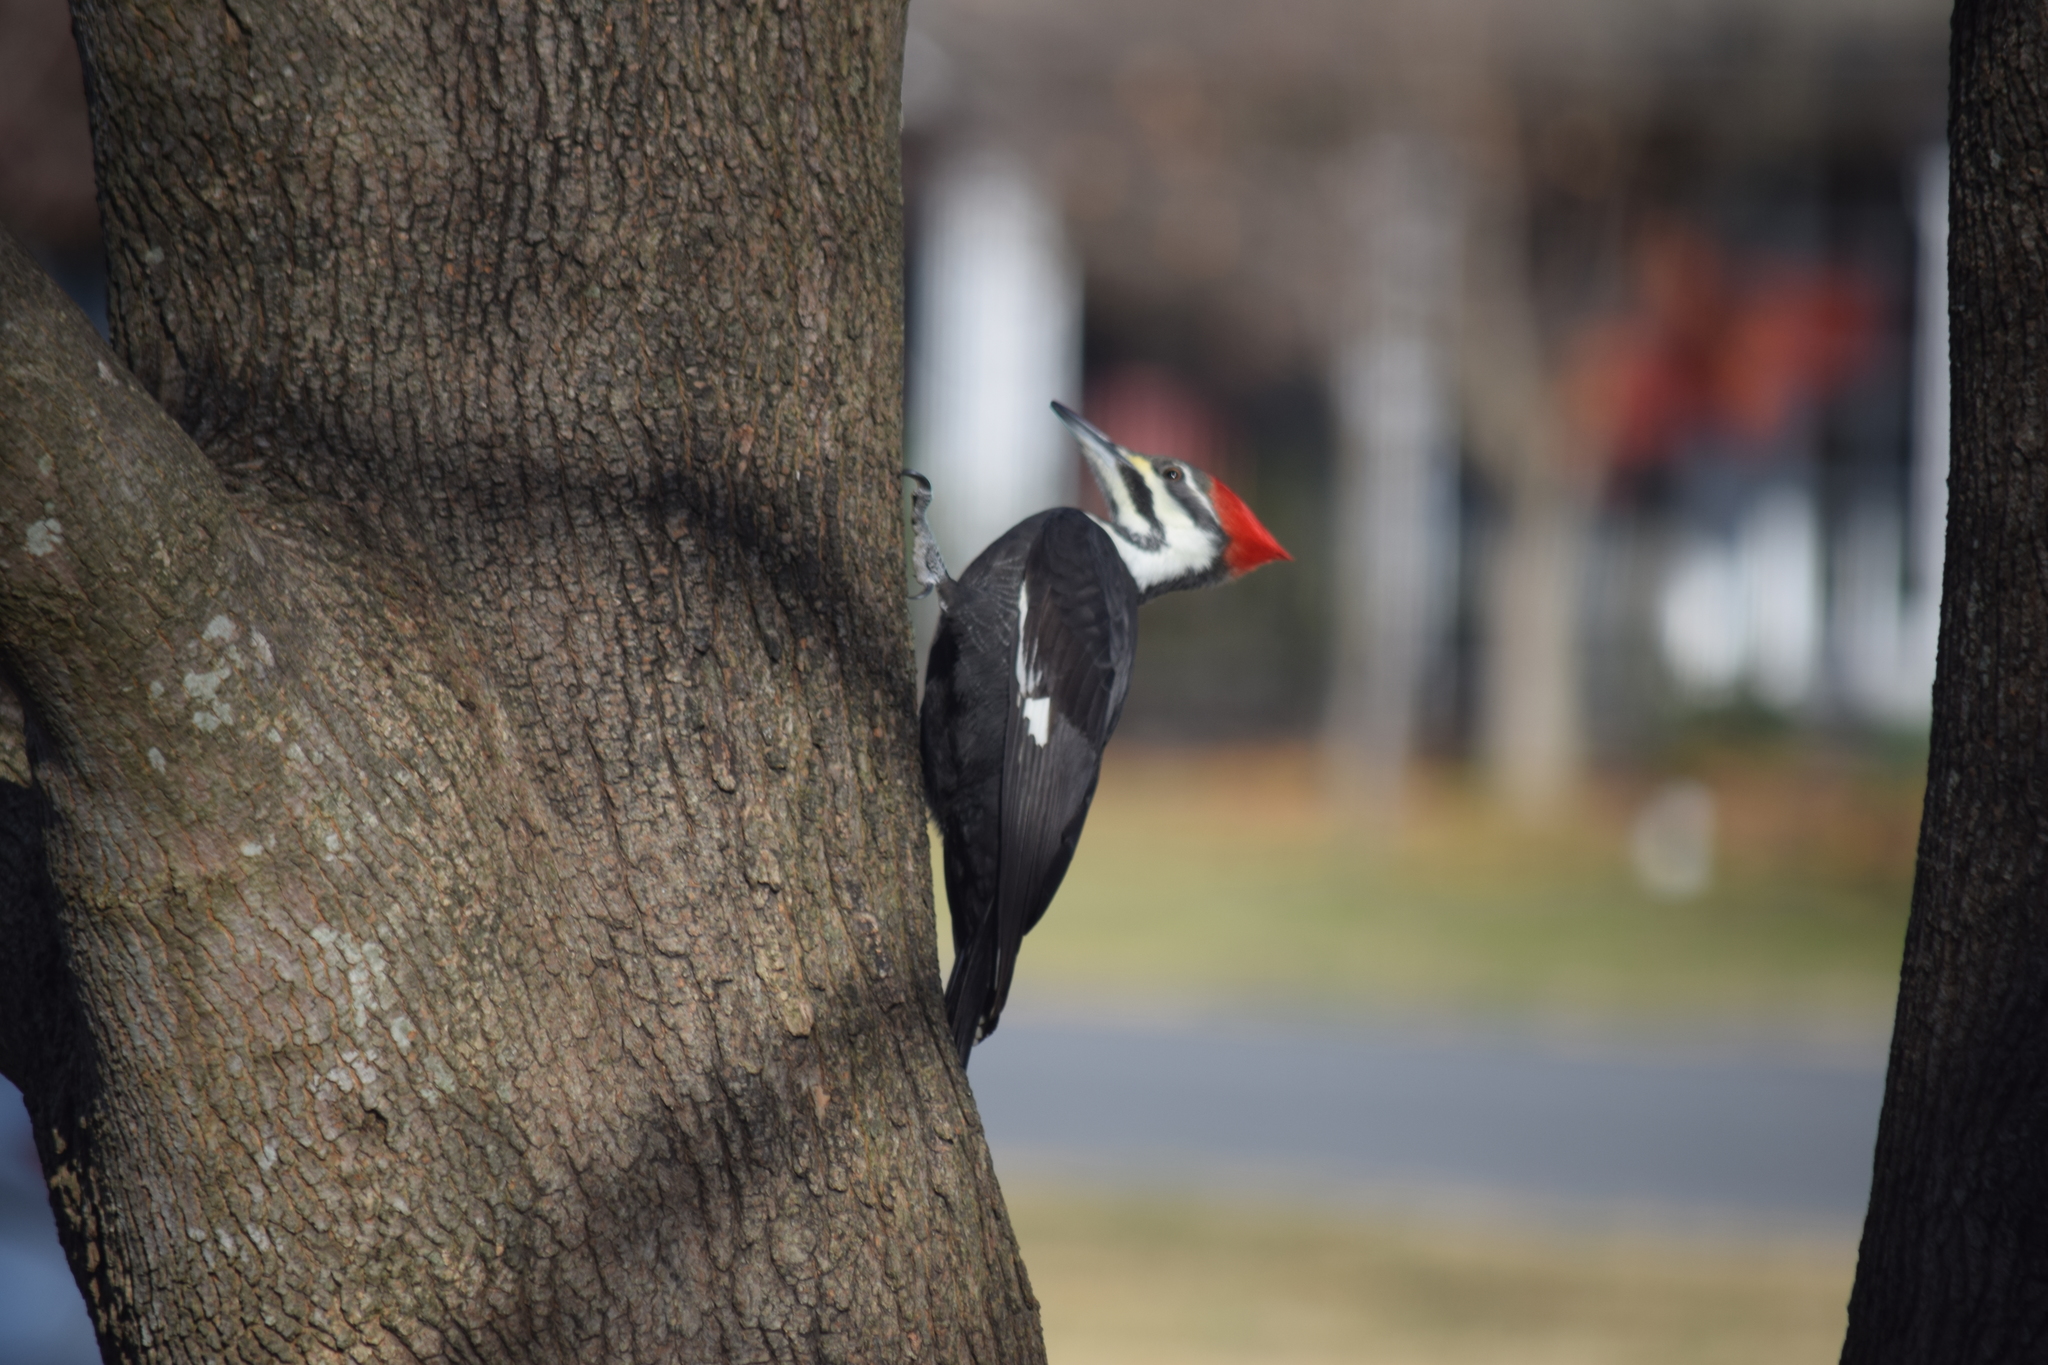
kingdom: Animalia
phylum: Chordata
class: Aves
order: Piciformes
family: Picidae
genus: Dryocopus
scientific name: Dryocopus pileatus
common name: Pileated woodpecker
